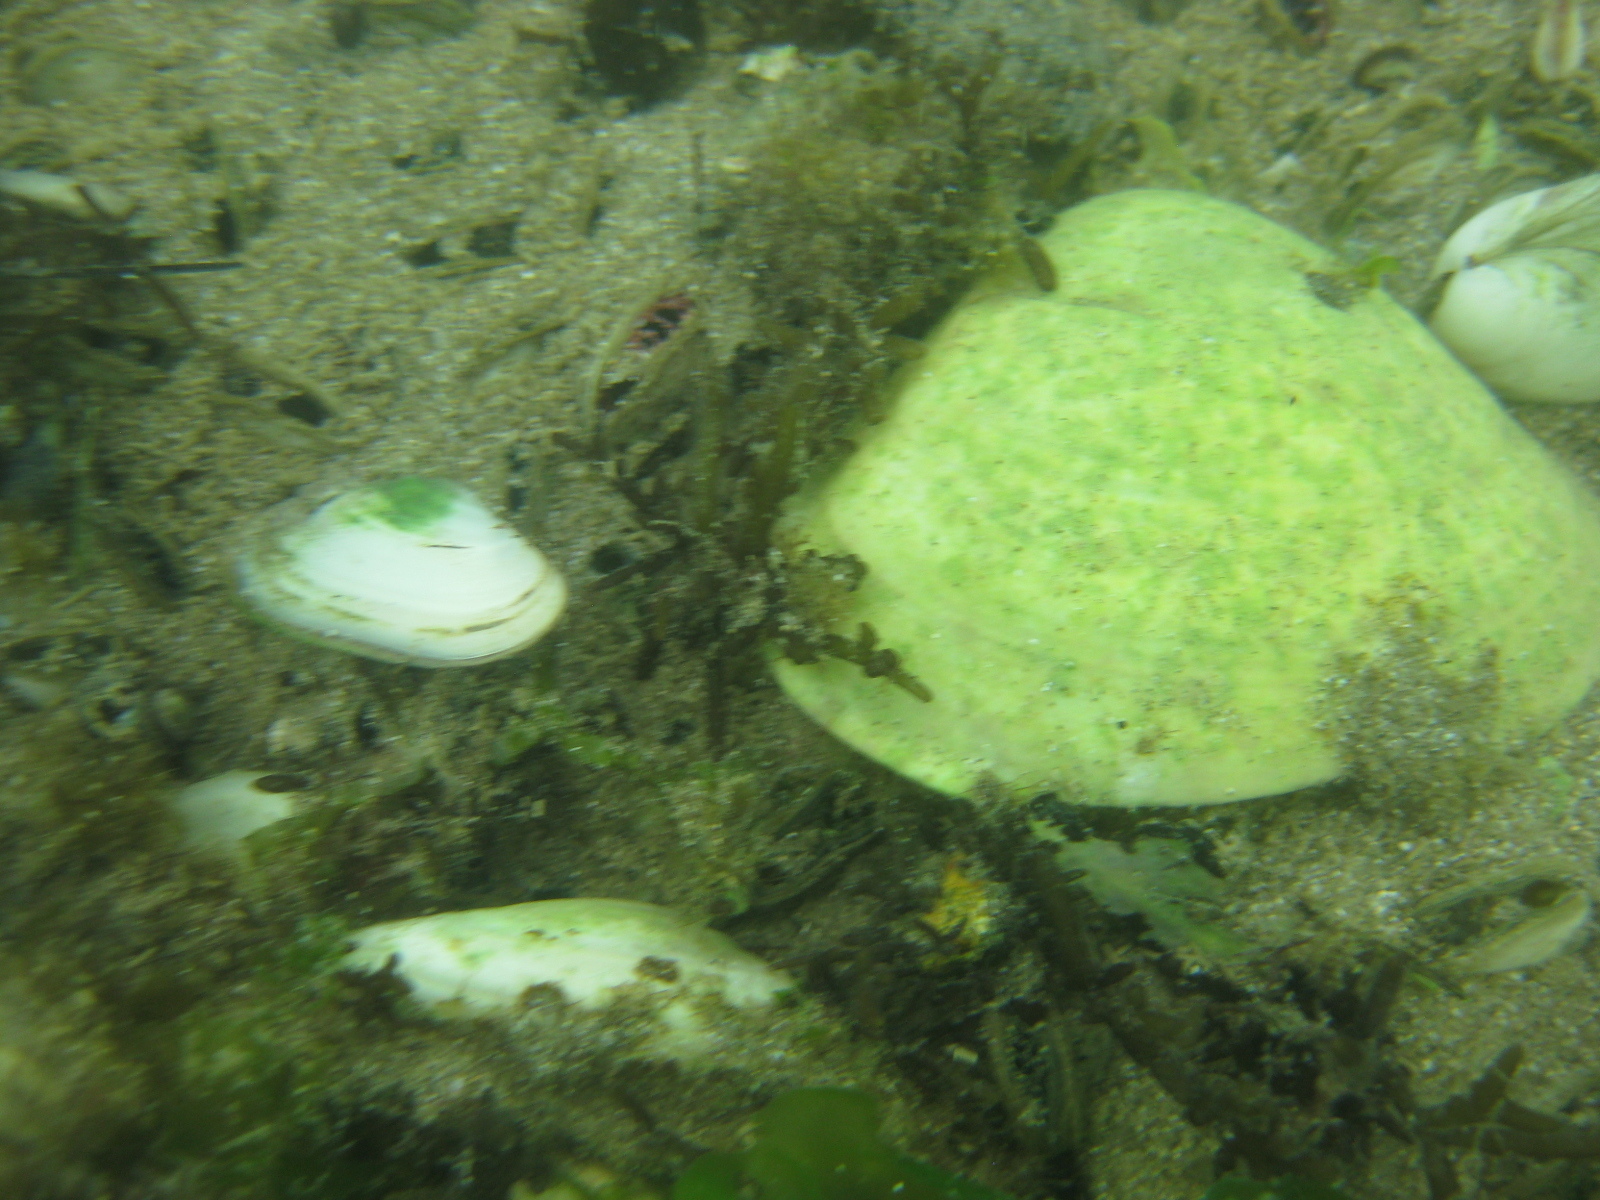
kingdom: Animalia
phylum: Mollusca
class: Bivalvia
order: Venerida
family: Mactridae
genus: Cyclomactra
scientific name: Cyclomactra ovata
